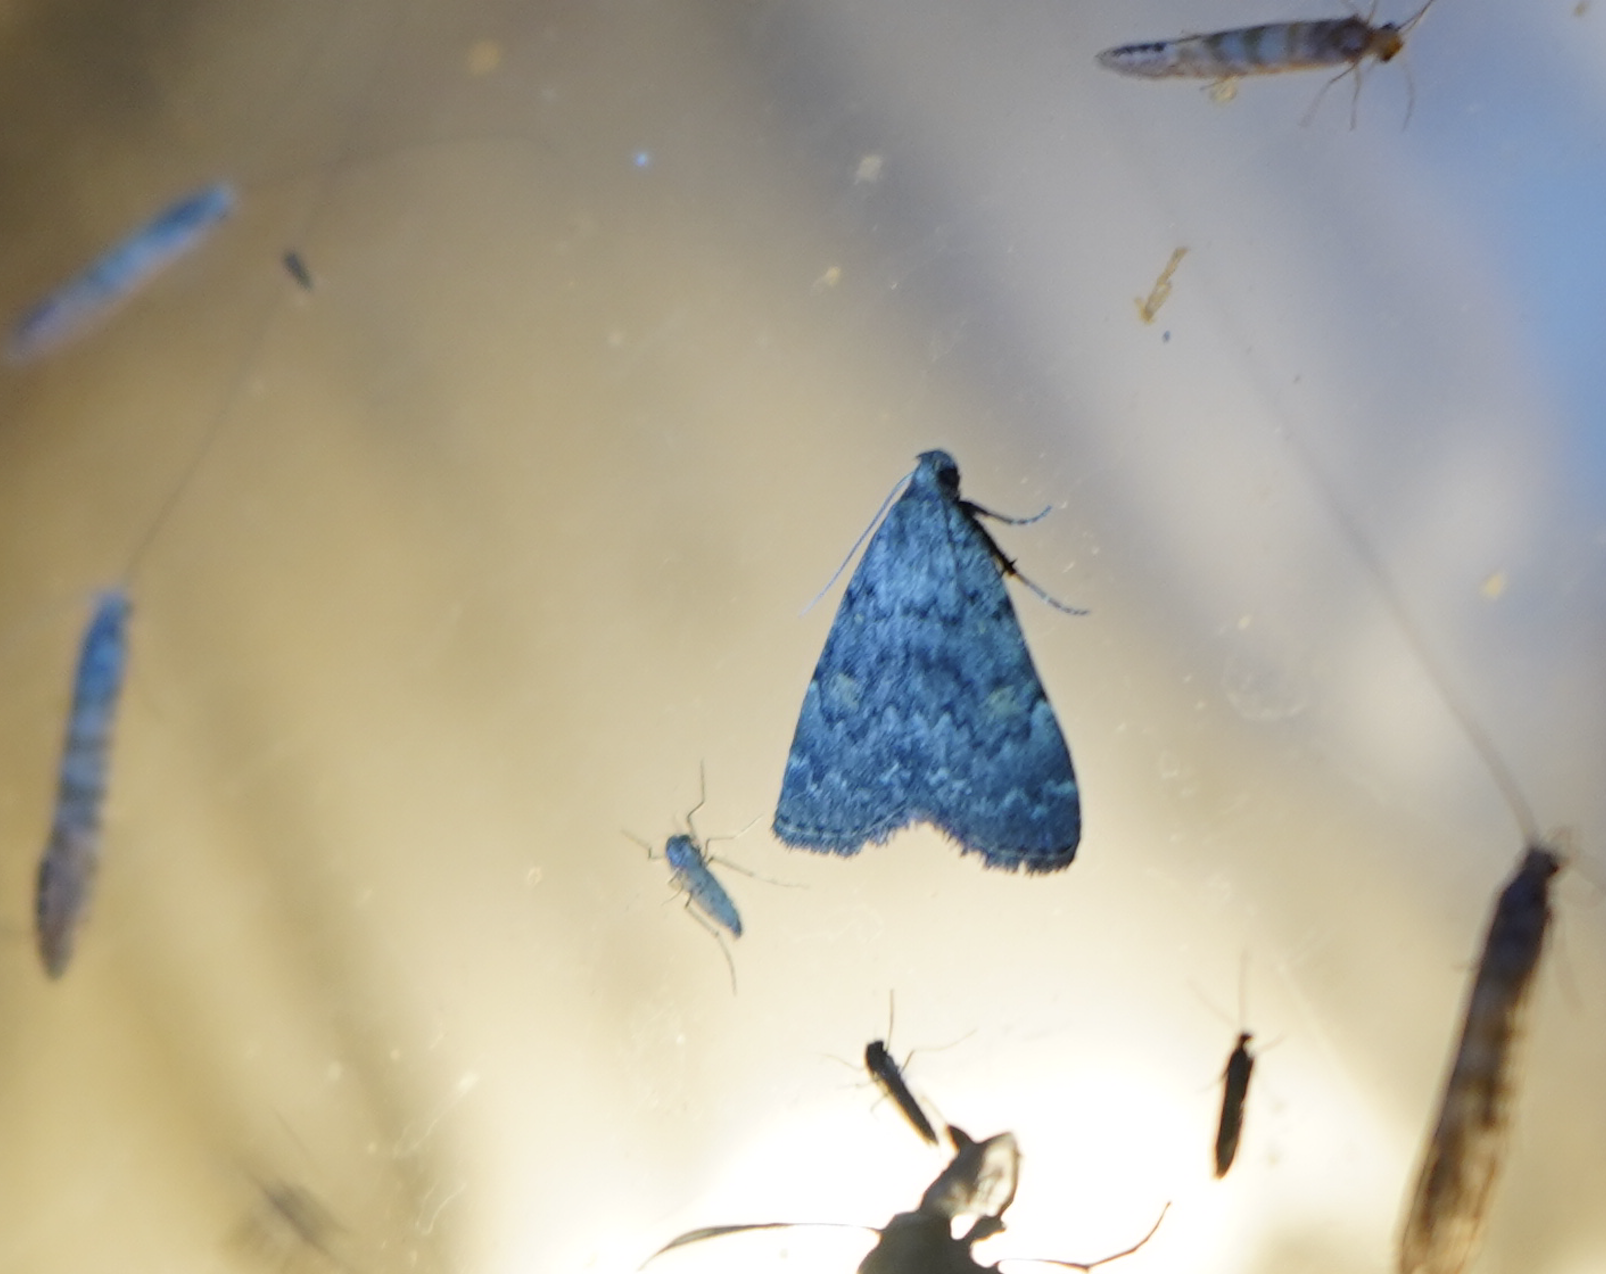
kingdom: Animalia
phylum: Arthropoda
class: Insecta
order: Lepidoptera
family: Erebidae
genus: Idia
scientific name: Idia aemula
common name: Common idia moth
